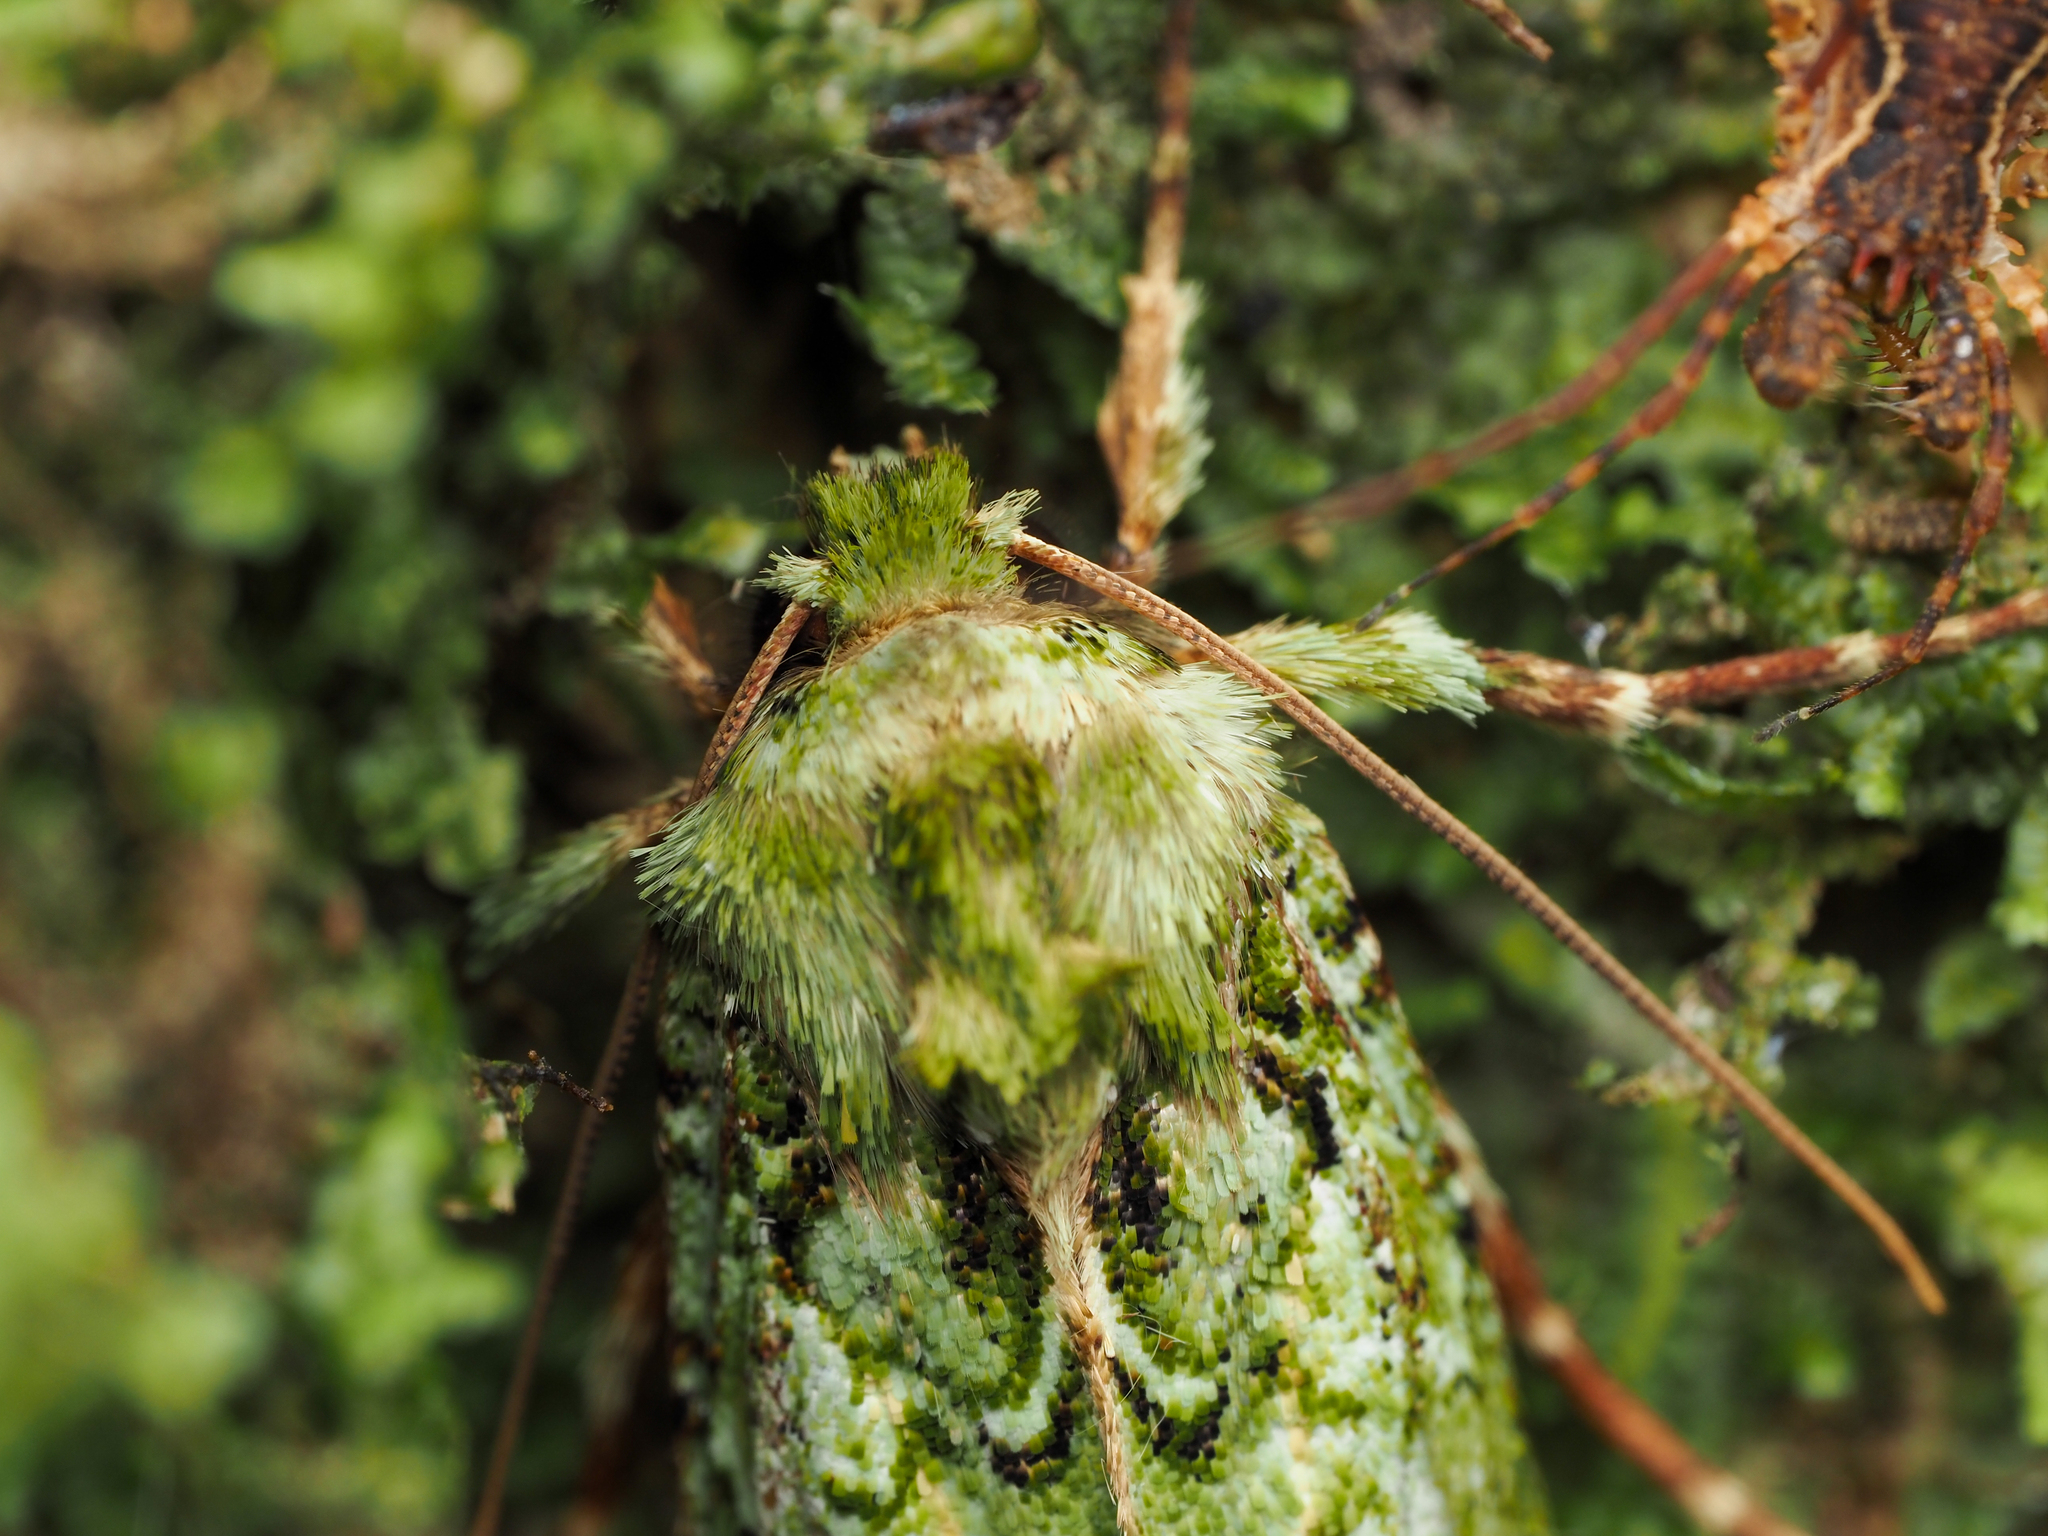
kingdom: Animalia
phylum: Arthropoda
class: Insecta
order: Lepidoptera
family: Noctuidae
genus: Feredayia
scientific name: Feredayia grammosa
